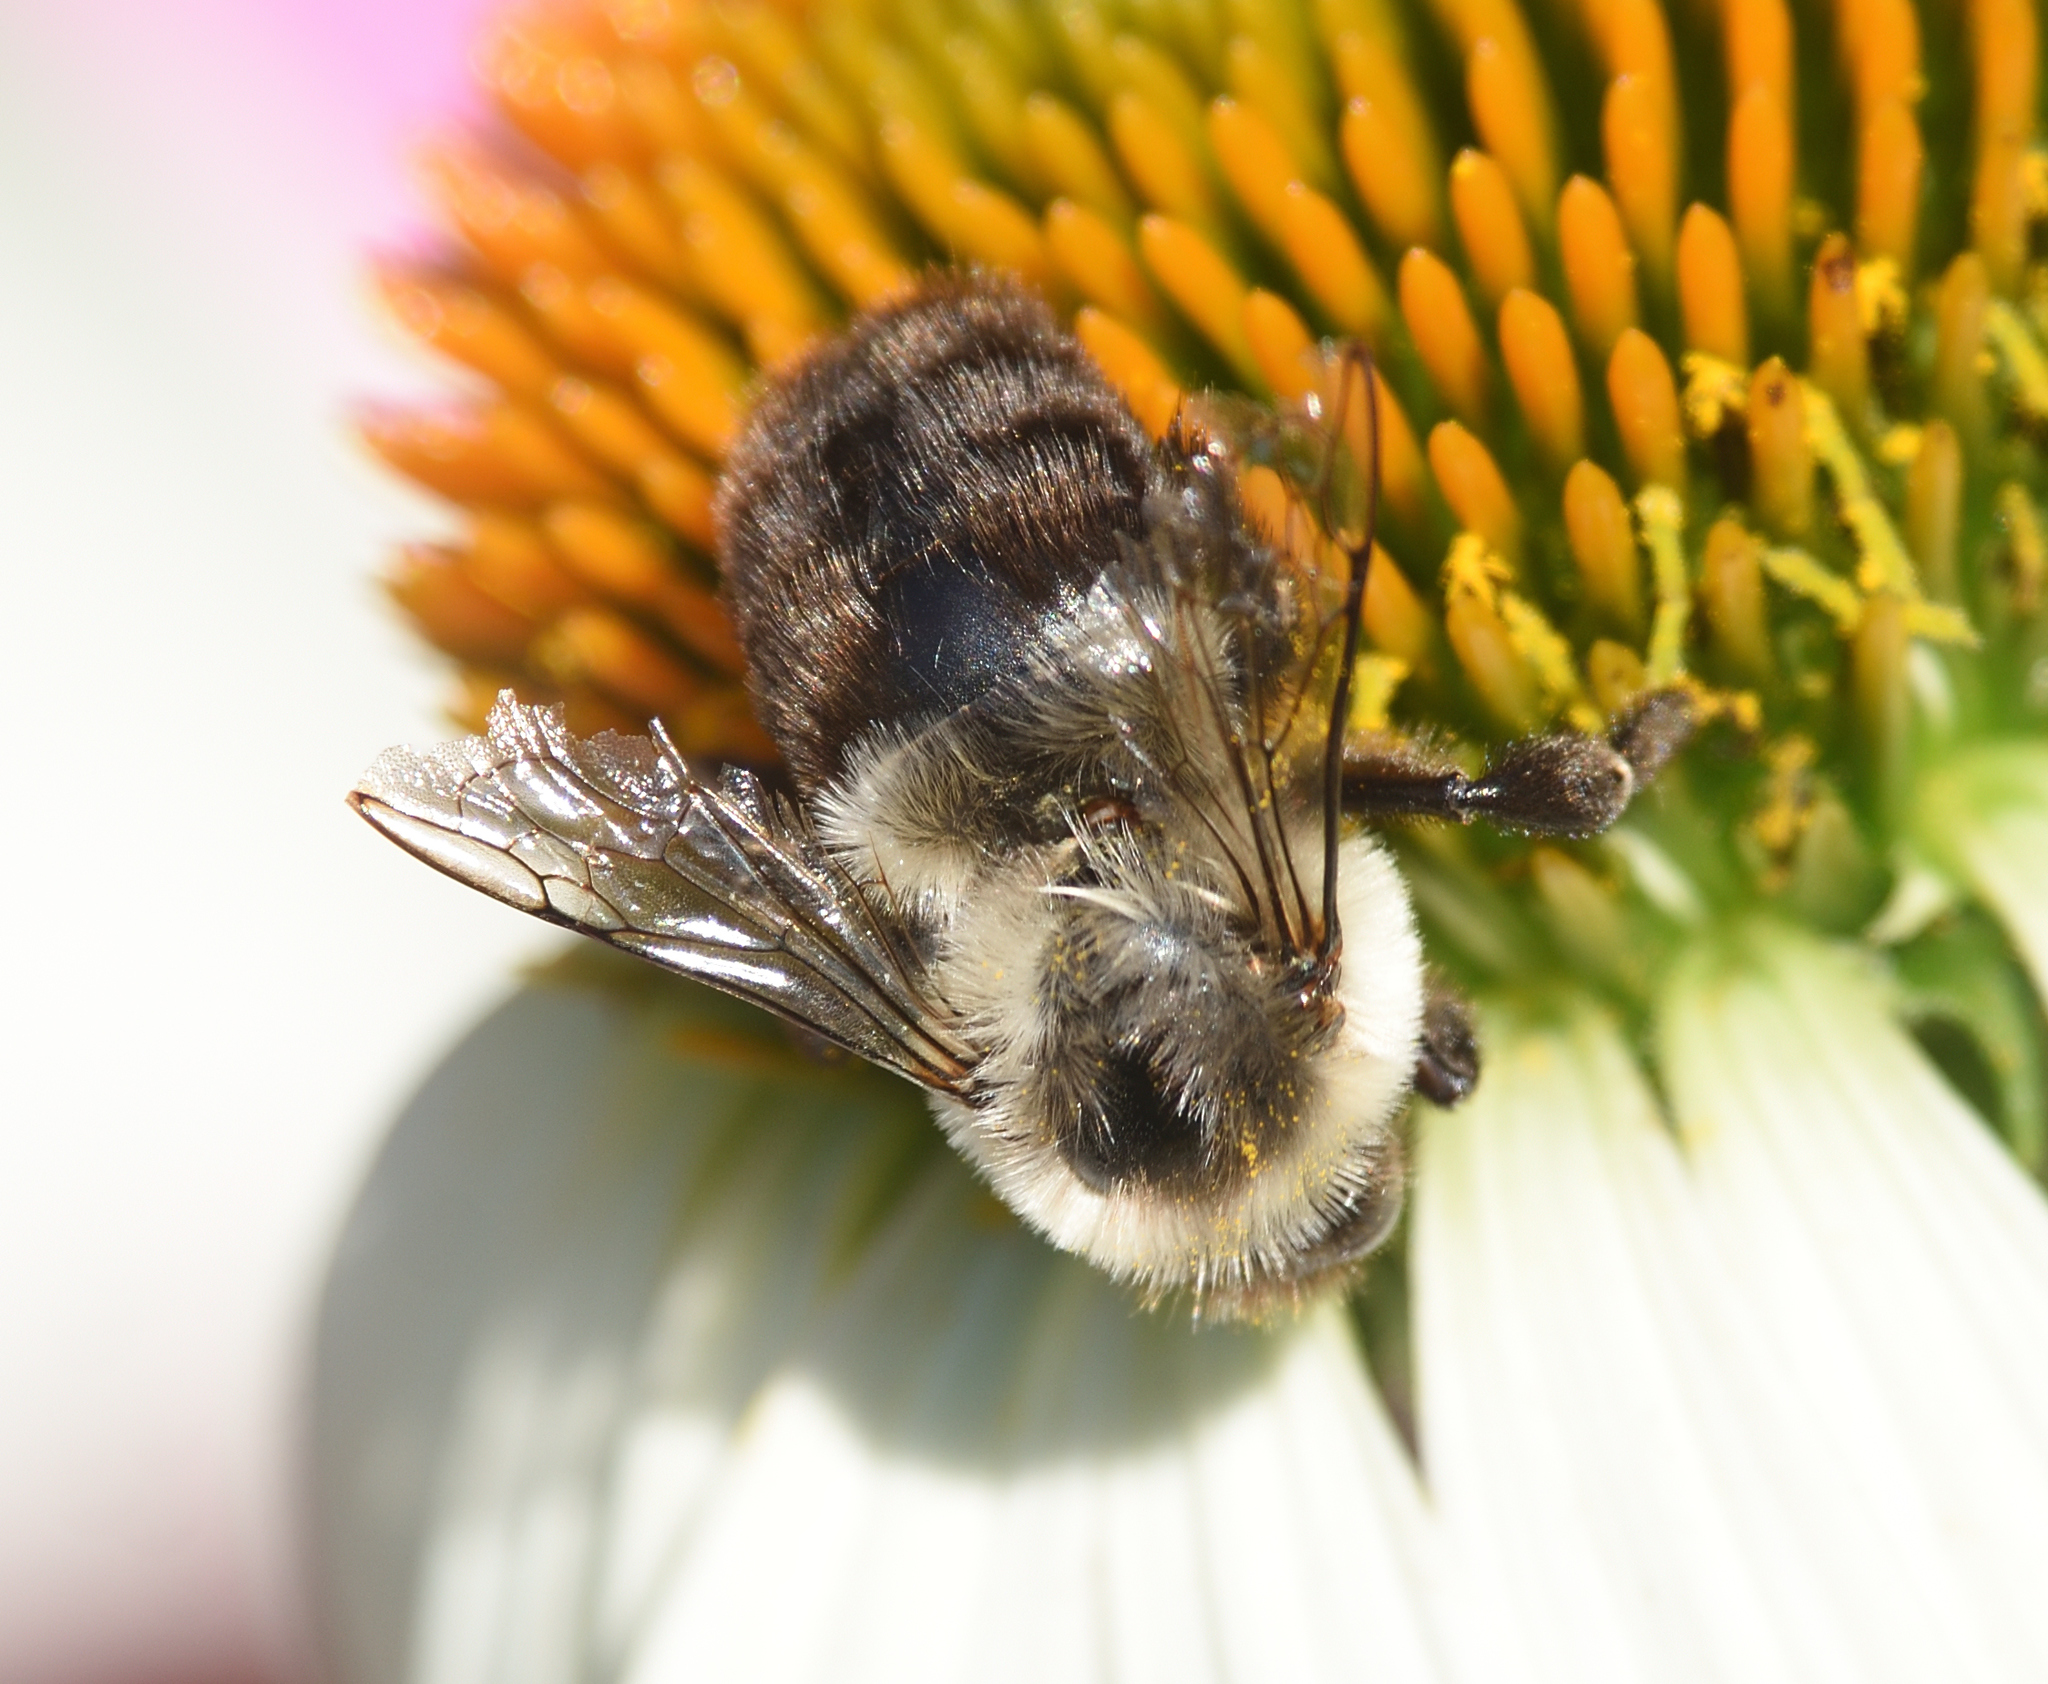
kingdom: Animalia
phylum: Arthropoda
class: Insecta
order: Hymenoptera
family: Apidae
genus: Bombus
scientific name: Bombus impatiens
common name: Common eastern bumble bee
